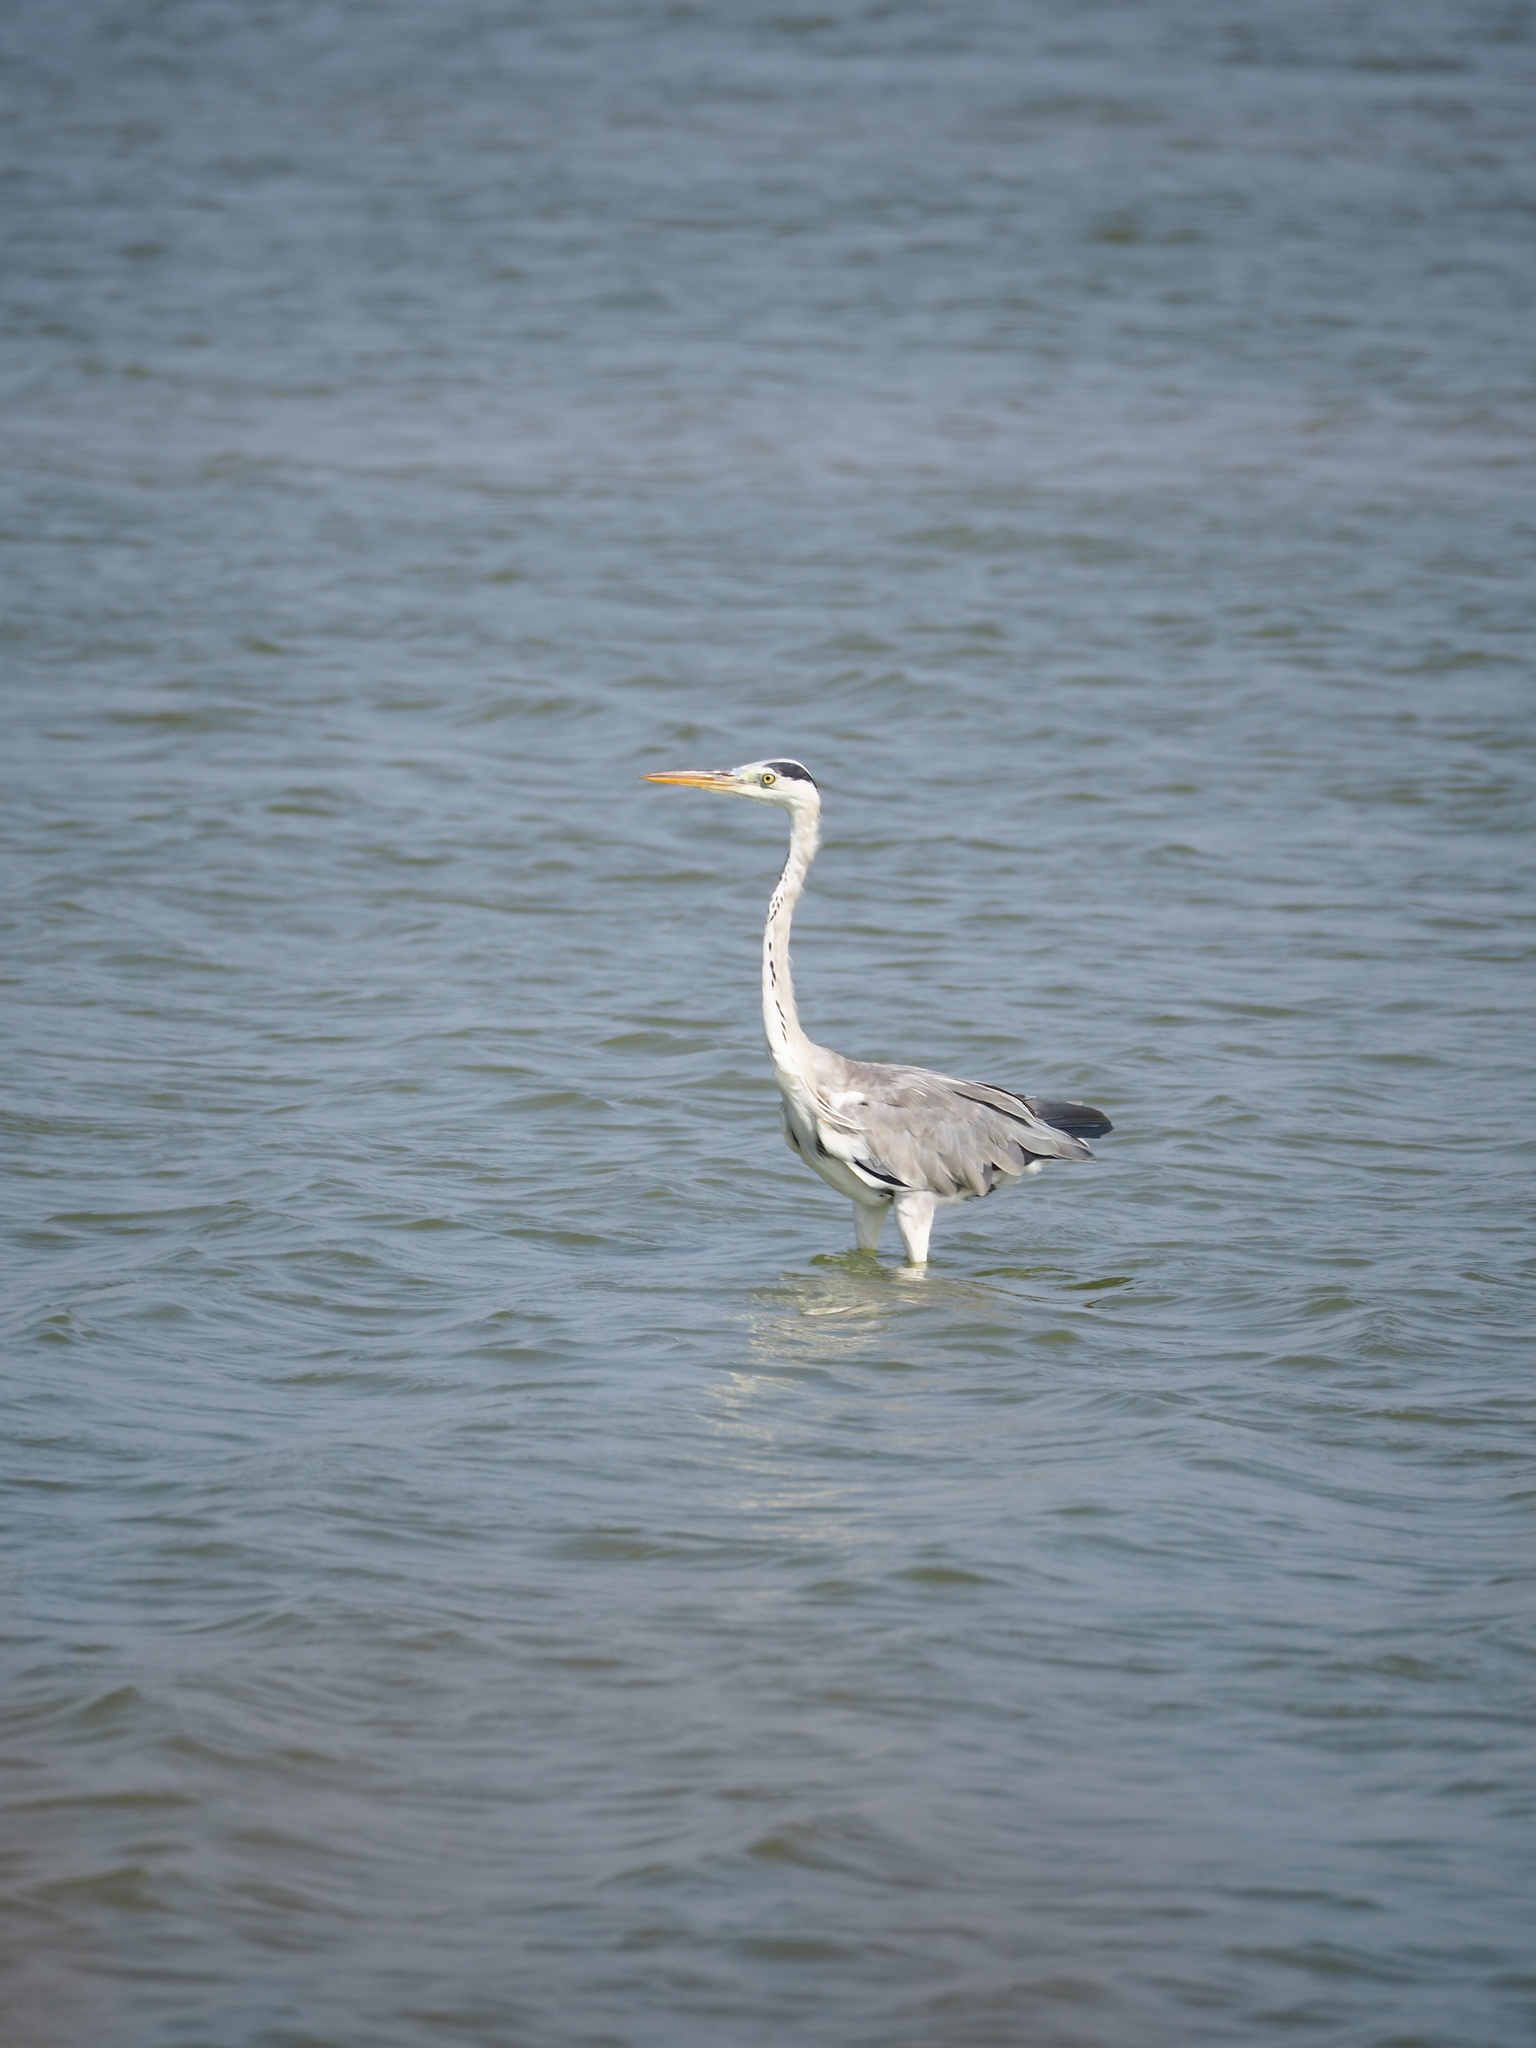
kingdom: Animalia
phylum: Chordata
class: Aves
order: Pelecaniformes
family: Ardeidae
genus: Ardea
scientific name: Ardea cinerea
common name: Grey heron
